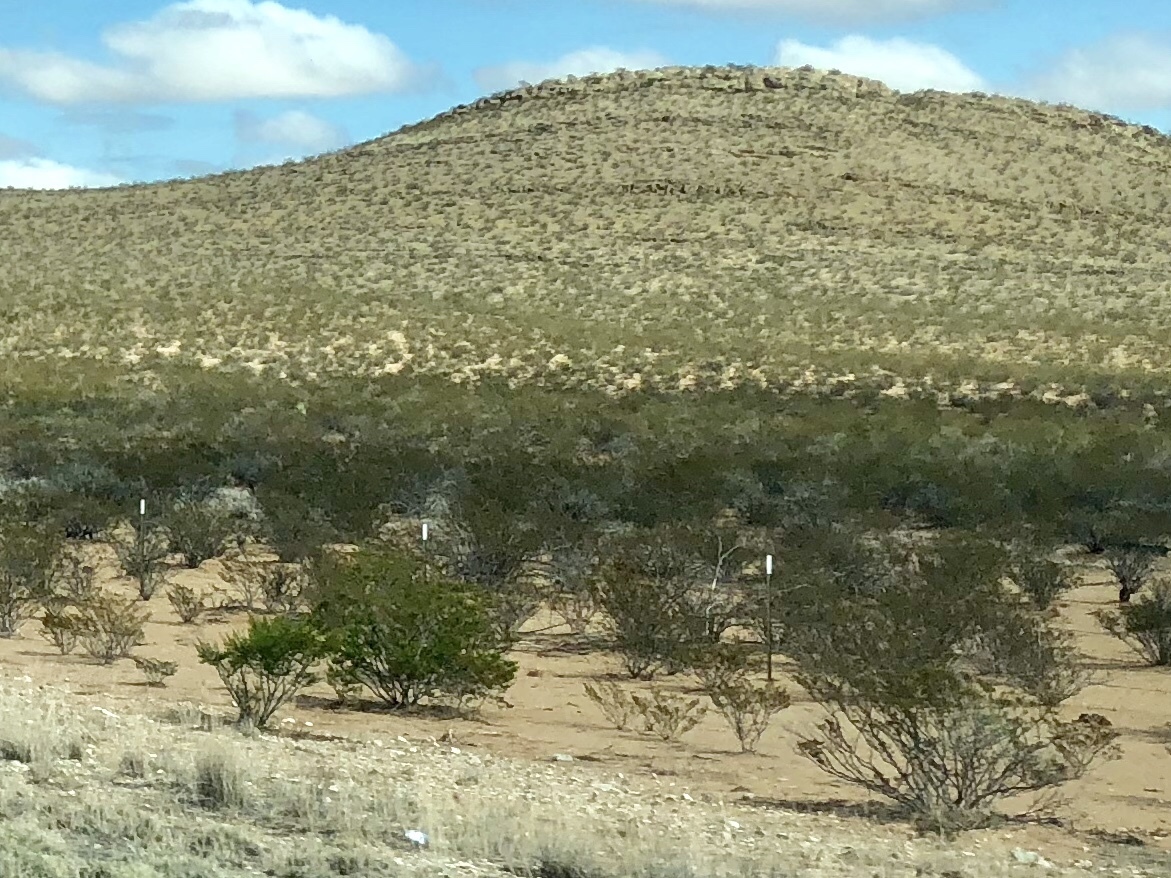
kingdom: Plantae
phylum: Tracheophyta
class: Magnoliopsida
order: Zygophyllales
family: Zygophyllaceae
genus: Larrea
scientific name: Larrea tridentata
